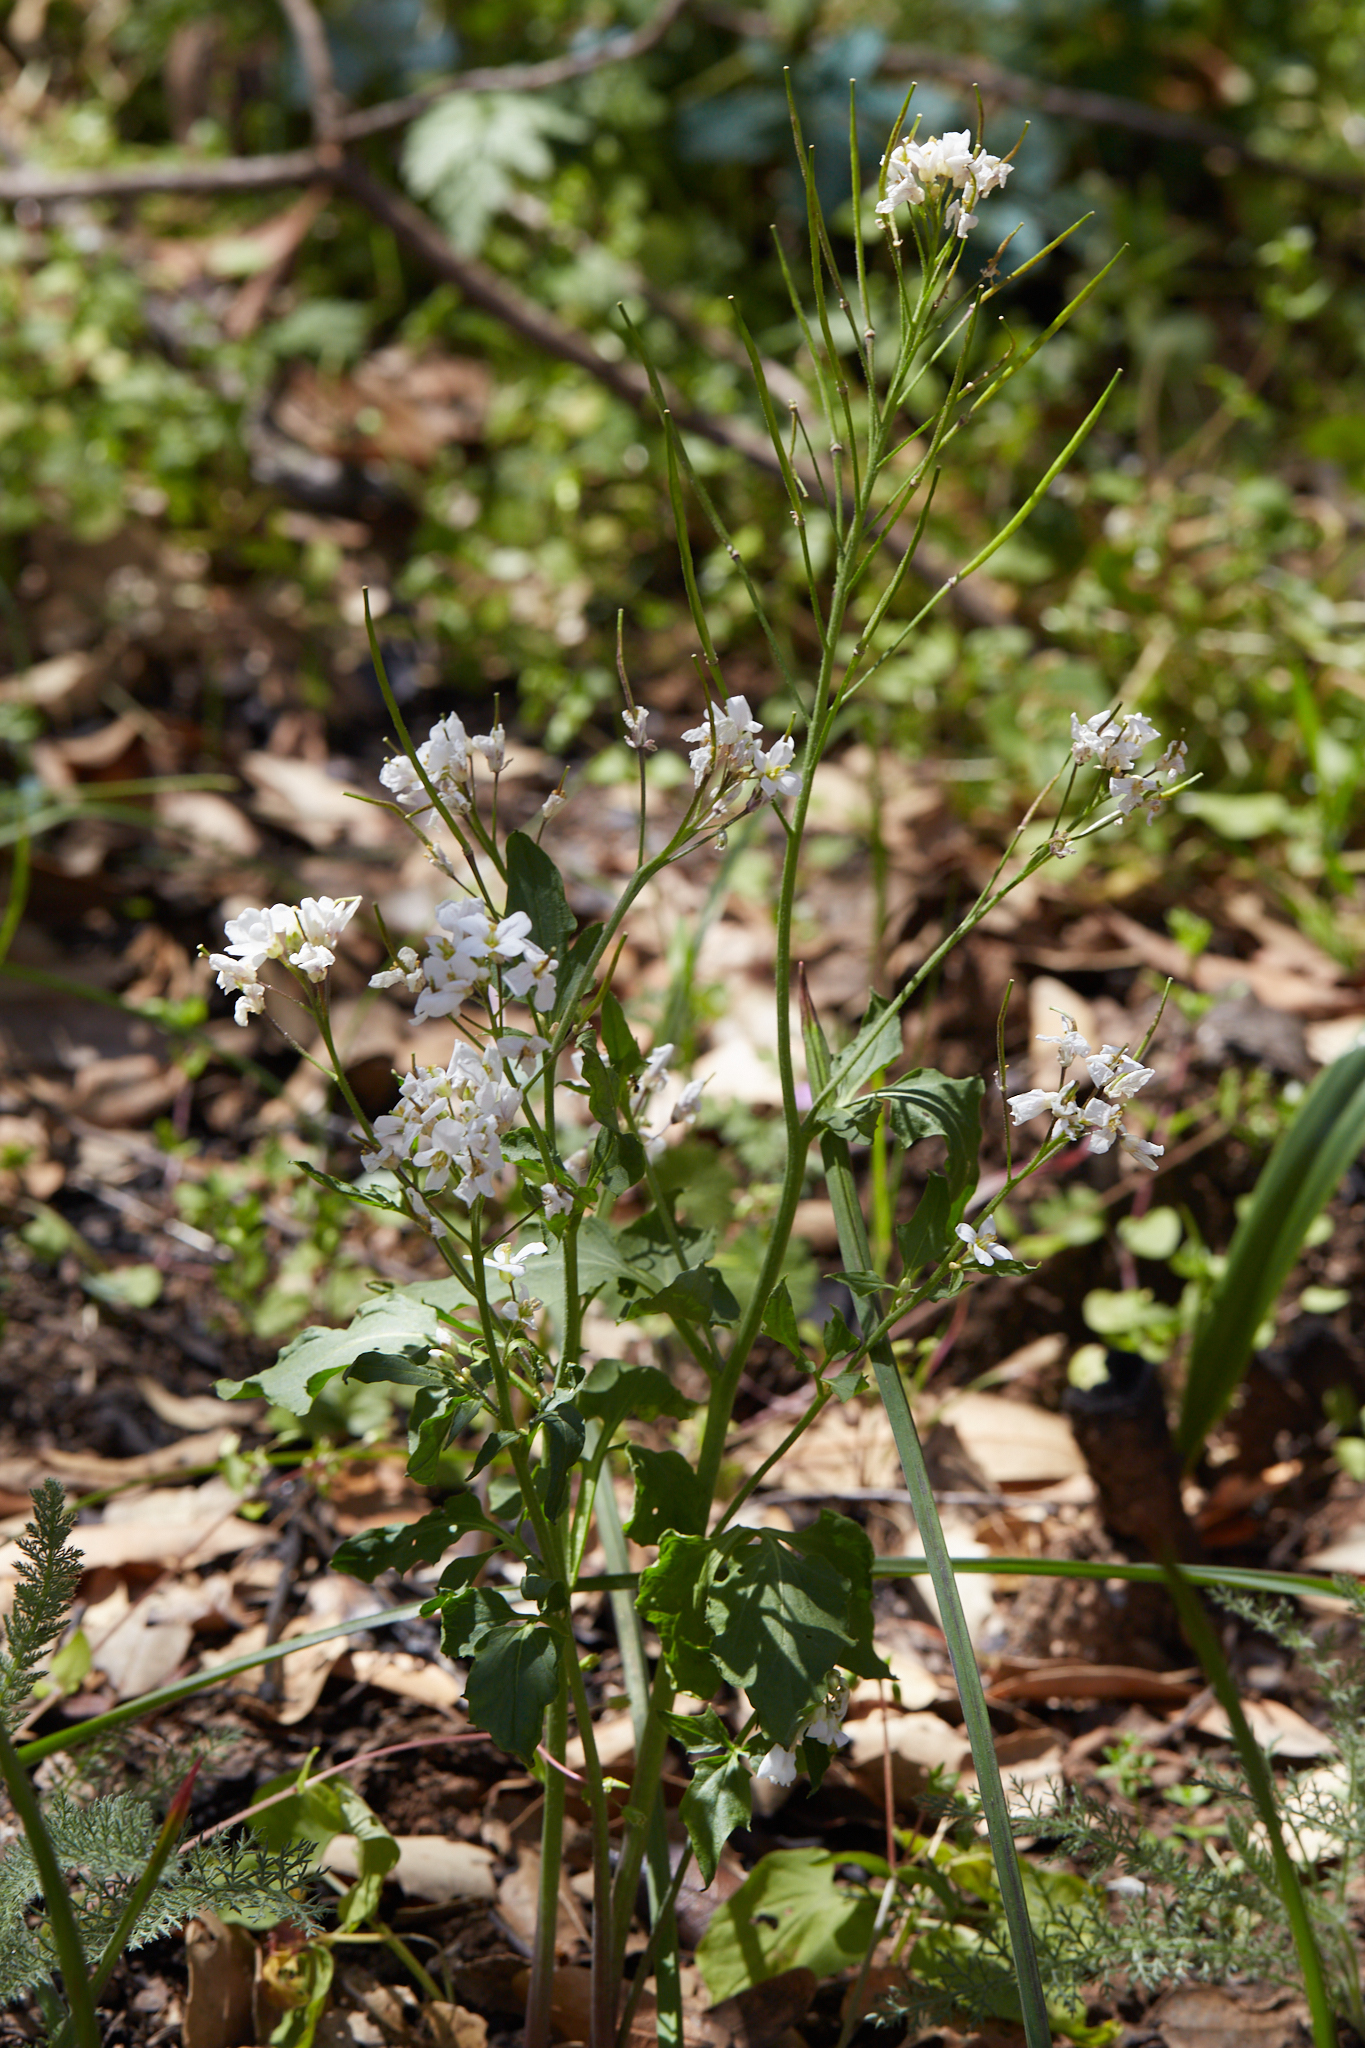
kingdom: Plantae
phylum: Tracheophyta
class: Magnoliopsida
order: Brassicales
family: Brassicaceae
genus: Cardamine
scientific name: Cardamine californica
